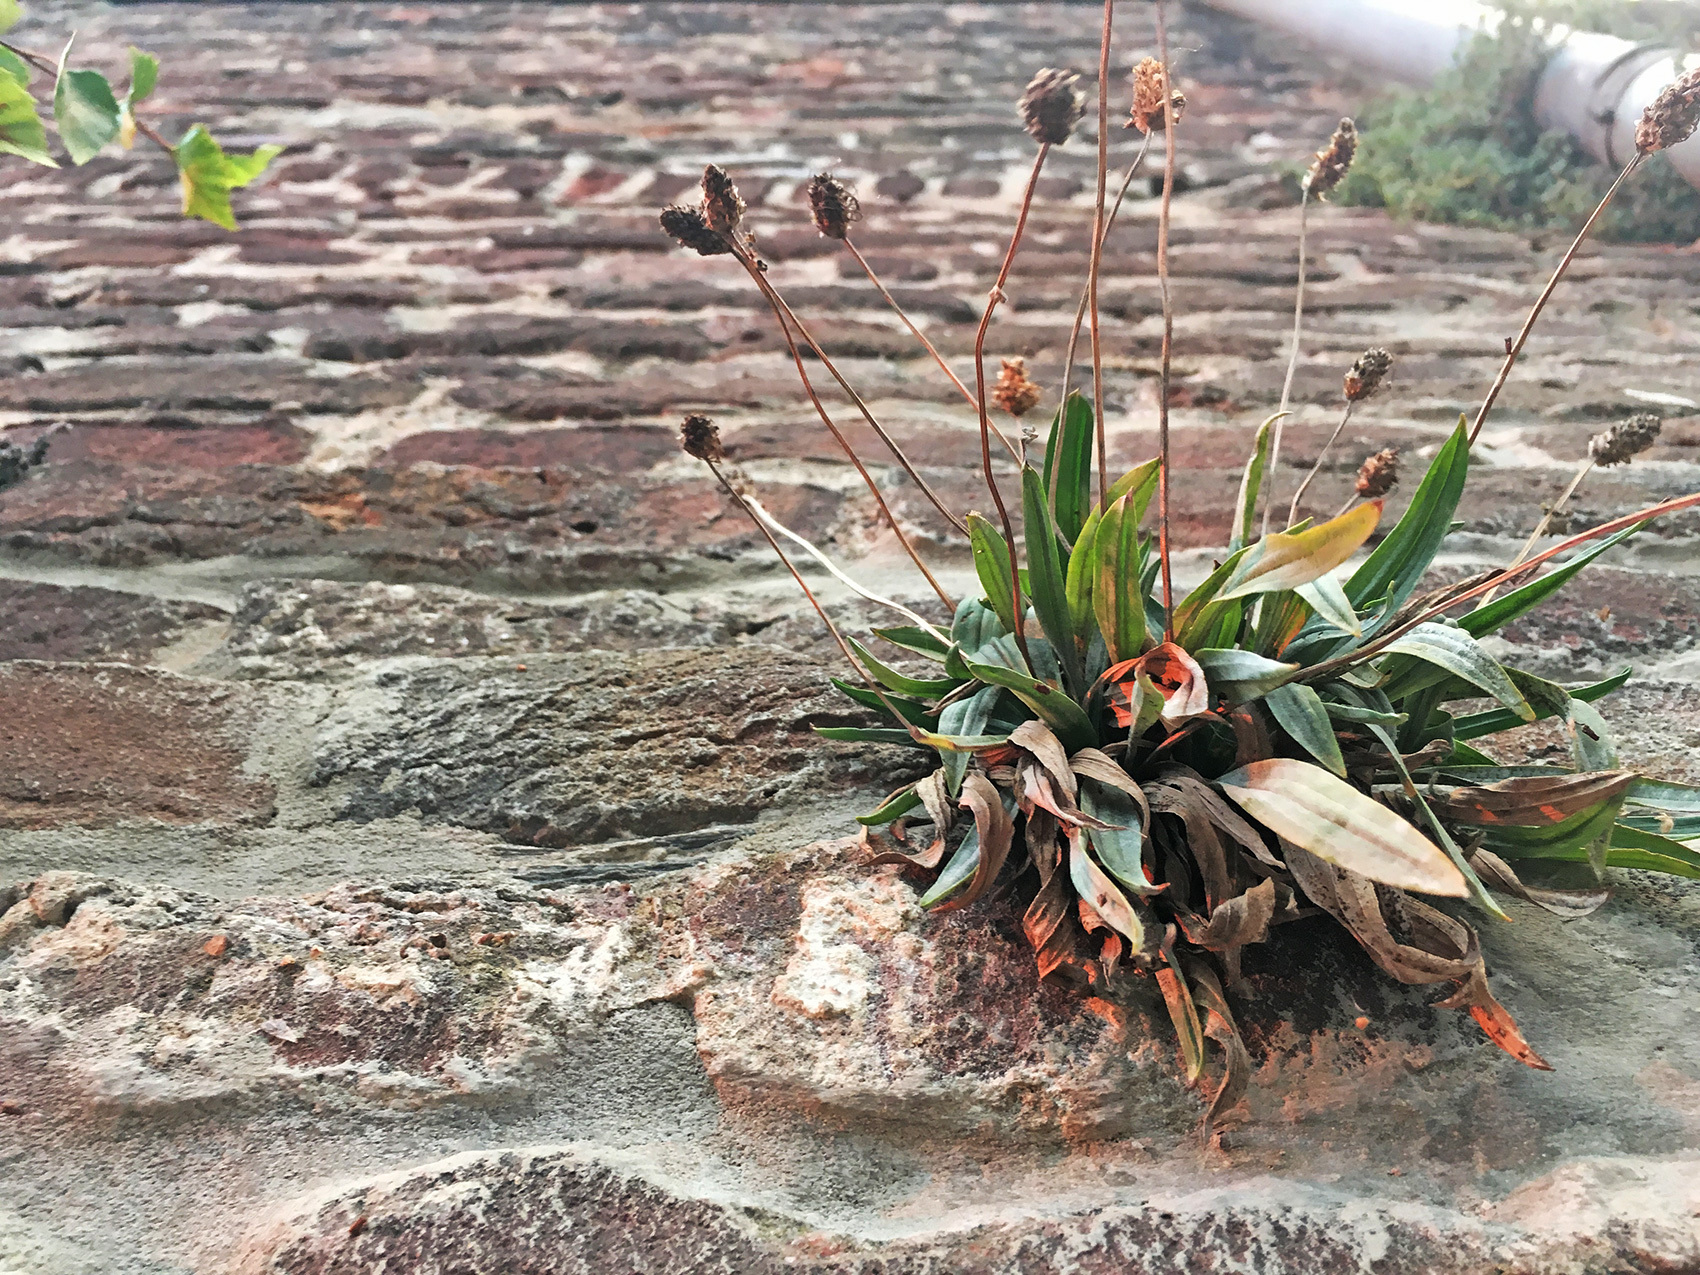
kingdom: Plantae
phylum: Tracheophyta
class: Magnoliopsida
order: Lamiales
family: Plantaginaceae
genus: Plantago
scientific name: Plantago lanceolata
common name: Ribwort plantain
